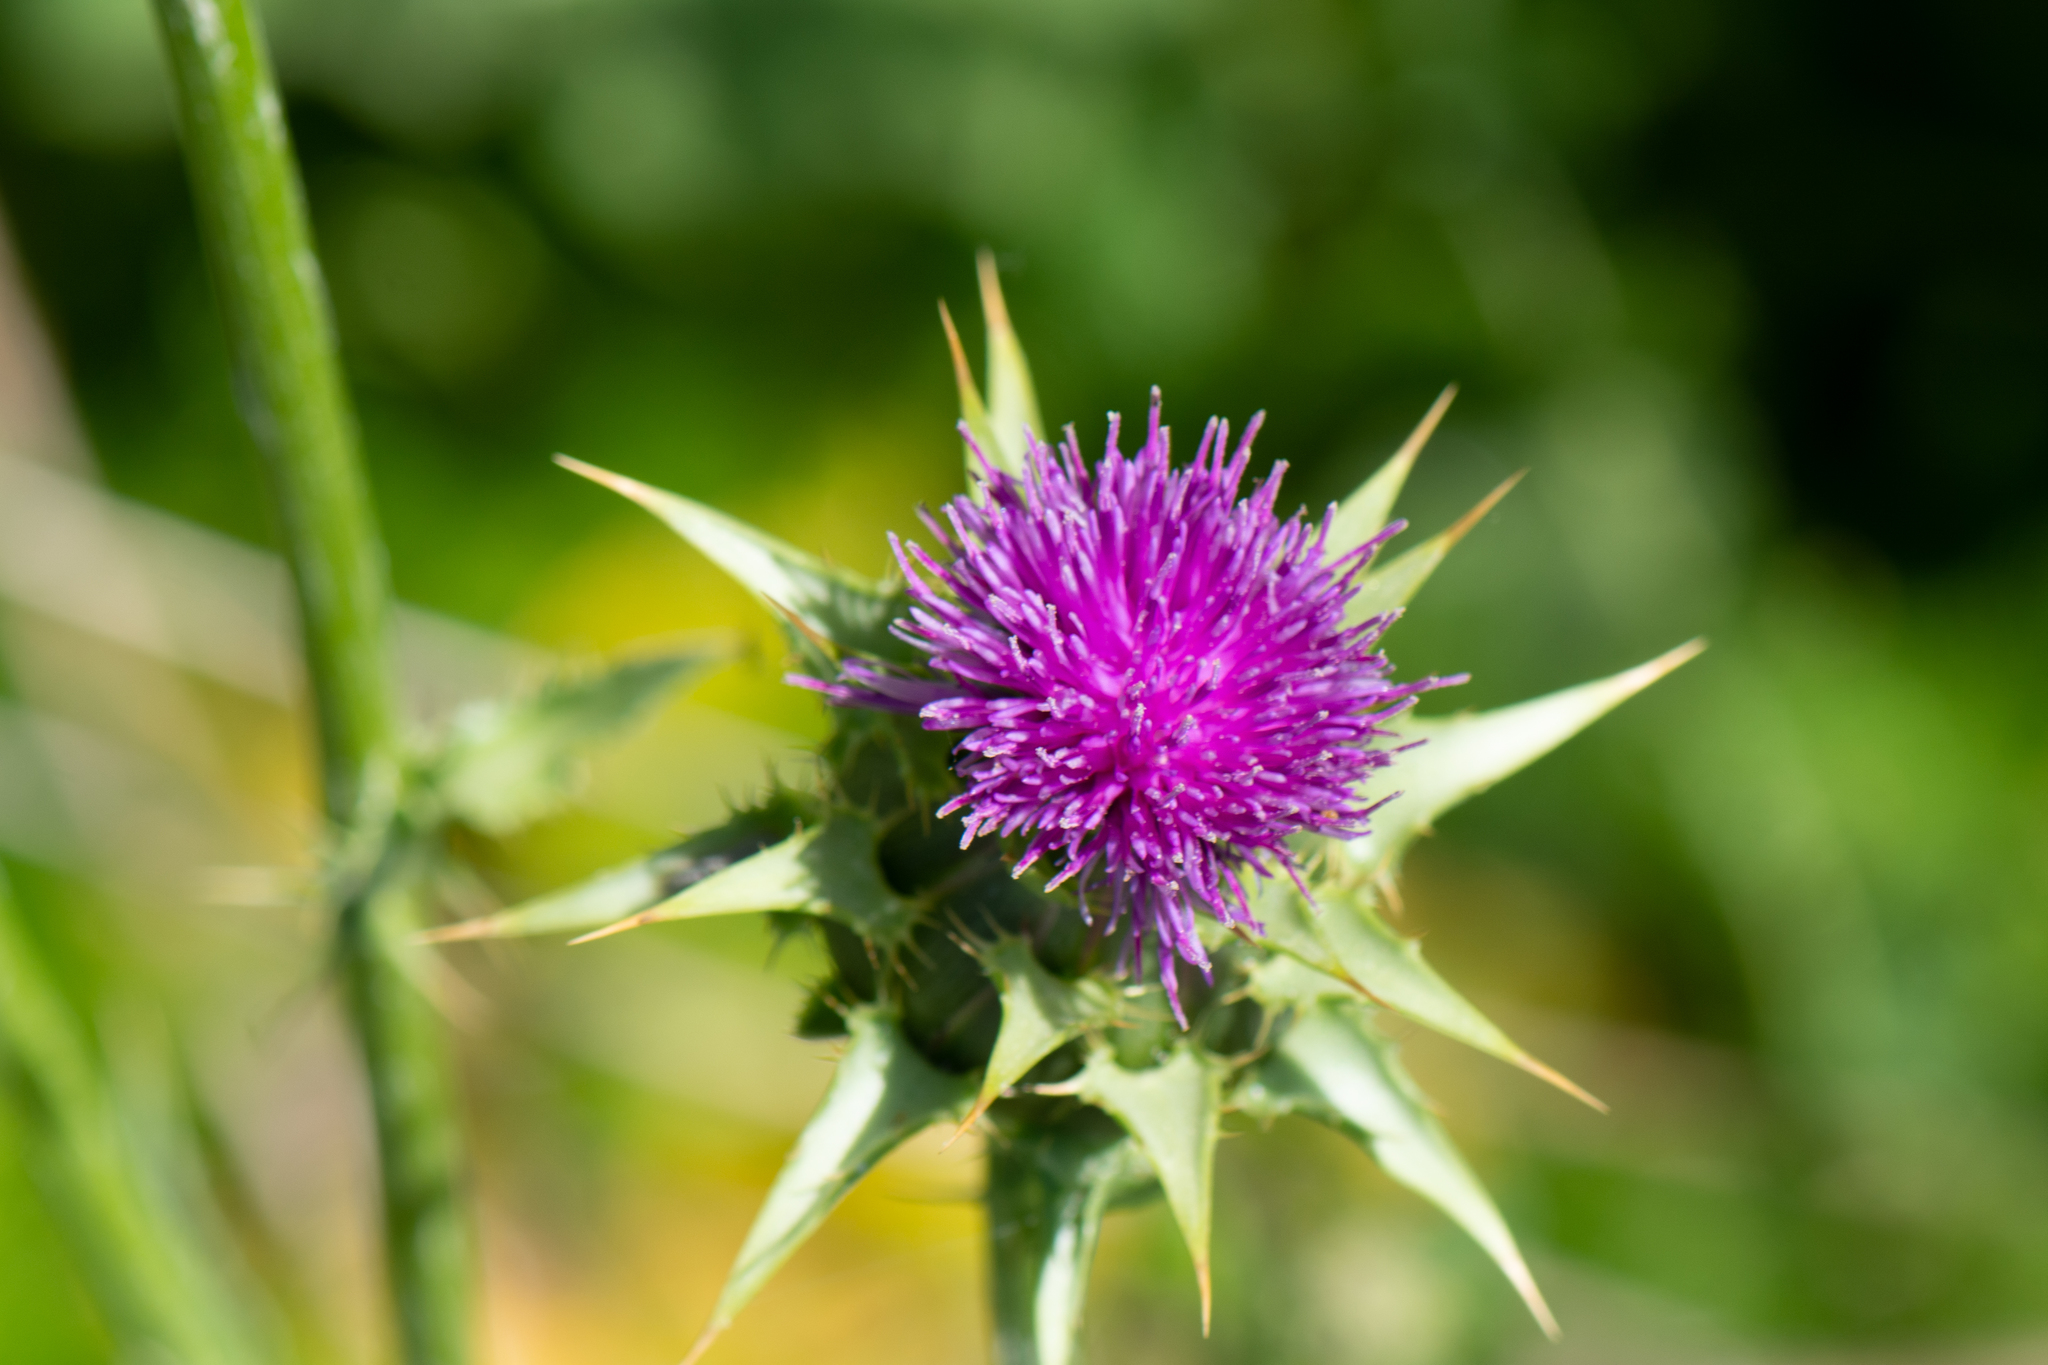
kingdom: Plantae
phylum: Tracheophyta
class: Magnoliopsida
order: Asterales
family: Asteraceae
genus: Silybum
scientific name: Silybum marianum
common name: Milk thistle
